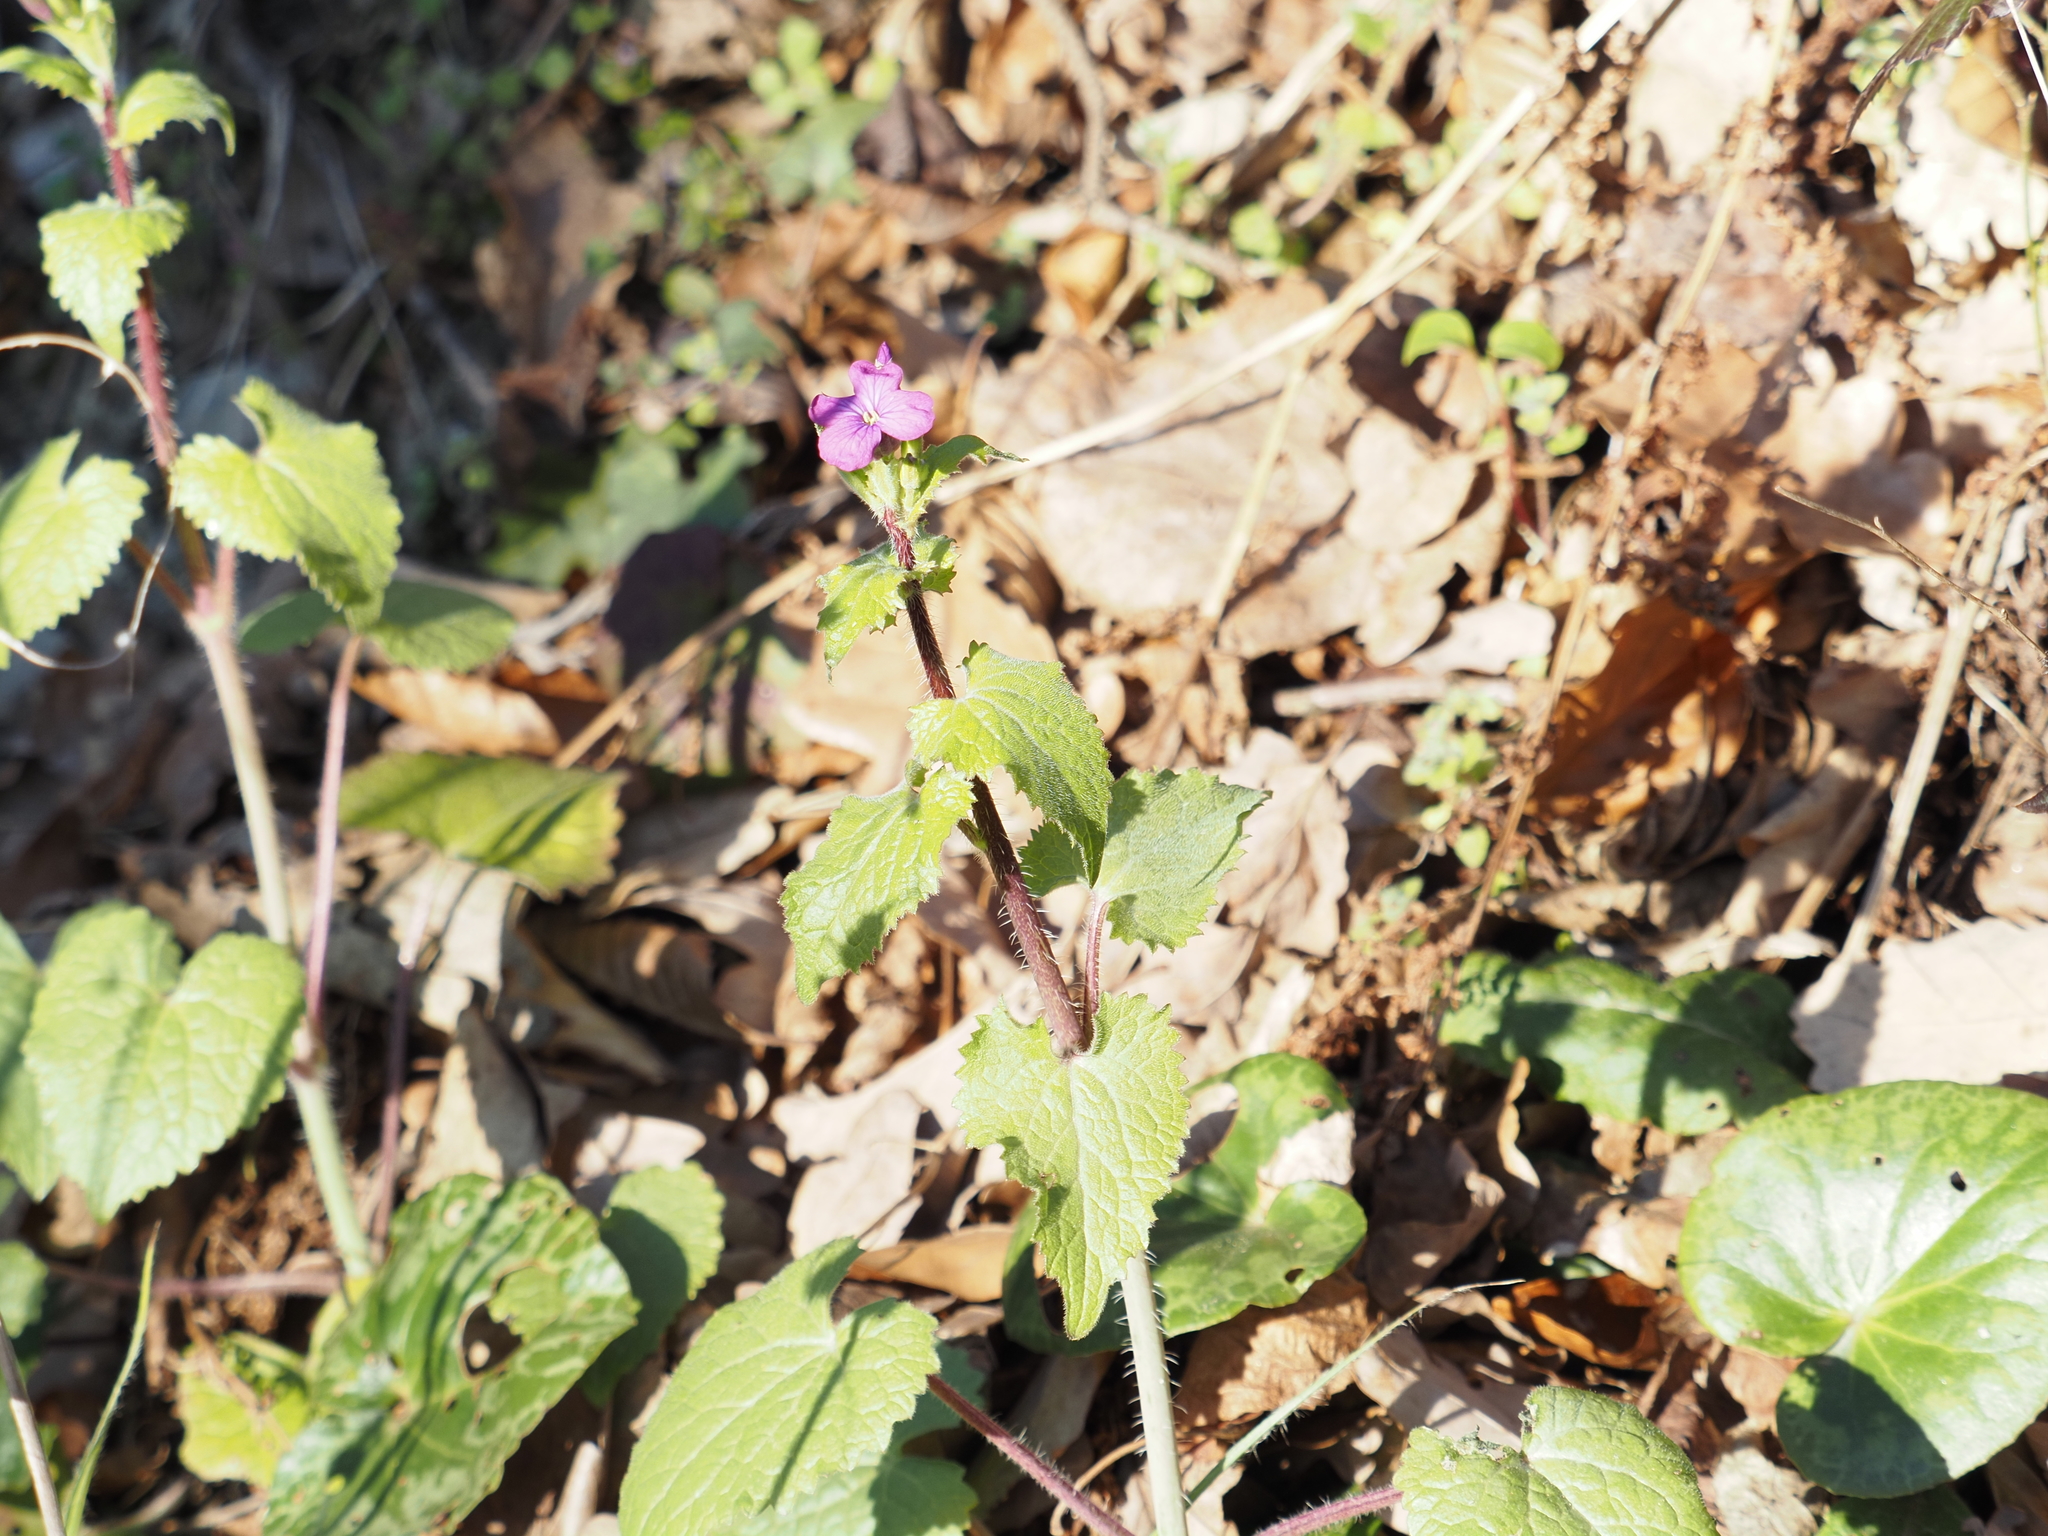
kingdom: Plantae
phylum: Tracheophyta
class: Magnoliopsida
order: Brassicales
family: Brassicaceae
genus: Lunaria
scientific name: Lunaria annua
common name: Honesty
